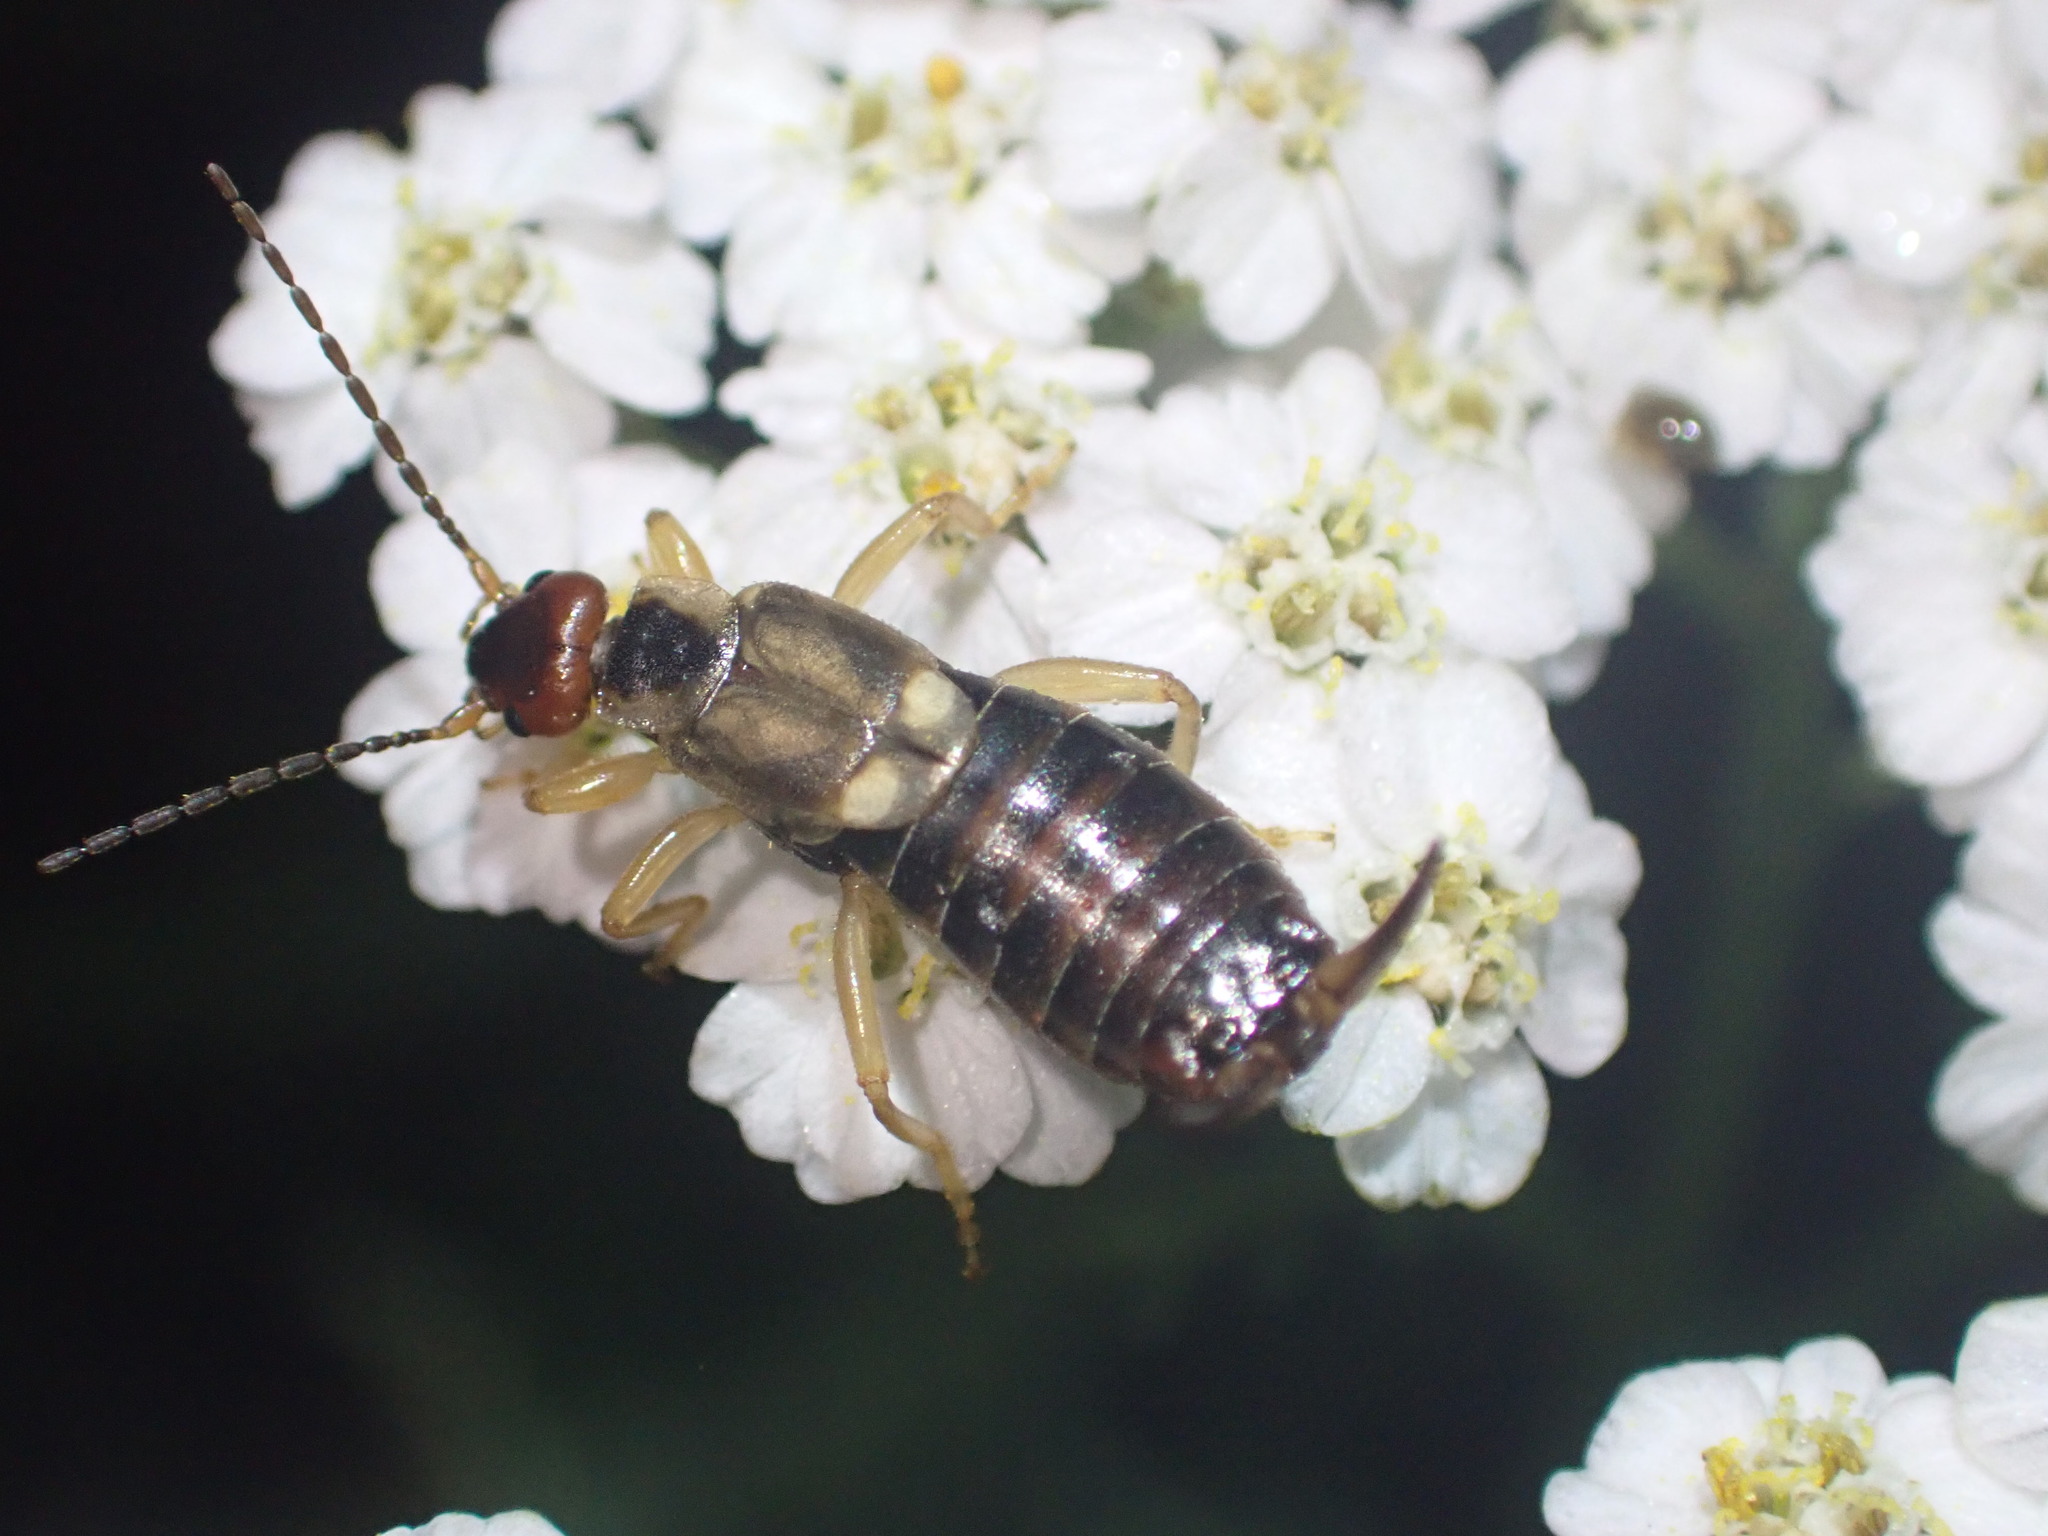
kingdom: Animalia
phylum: Arthropoda
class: Insecta
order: Dermaptera
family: Forficulidae
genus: Forficula
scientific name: Forficula
